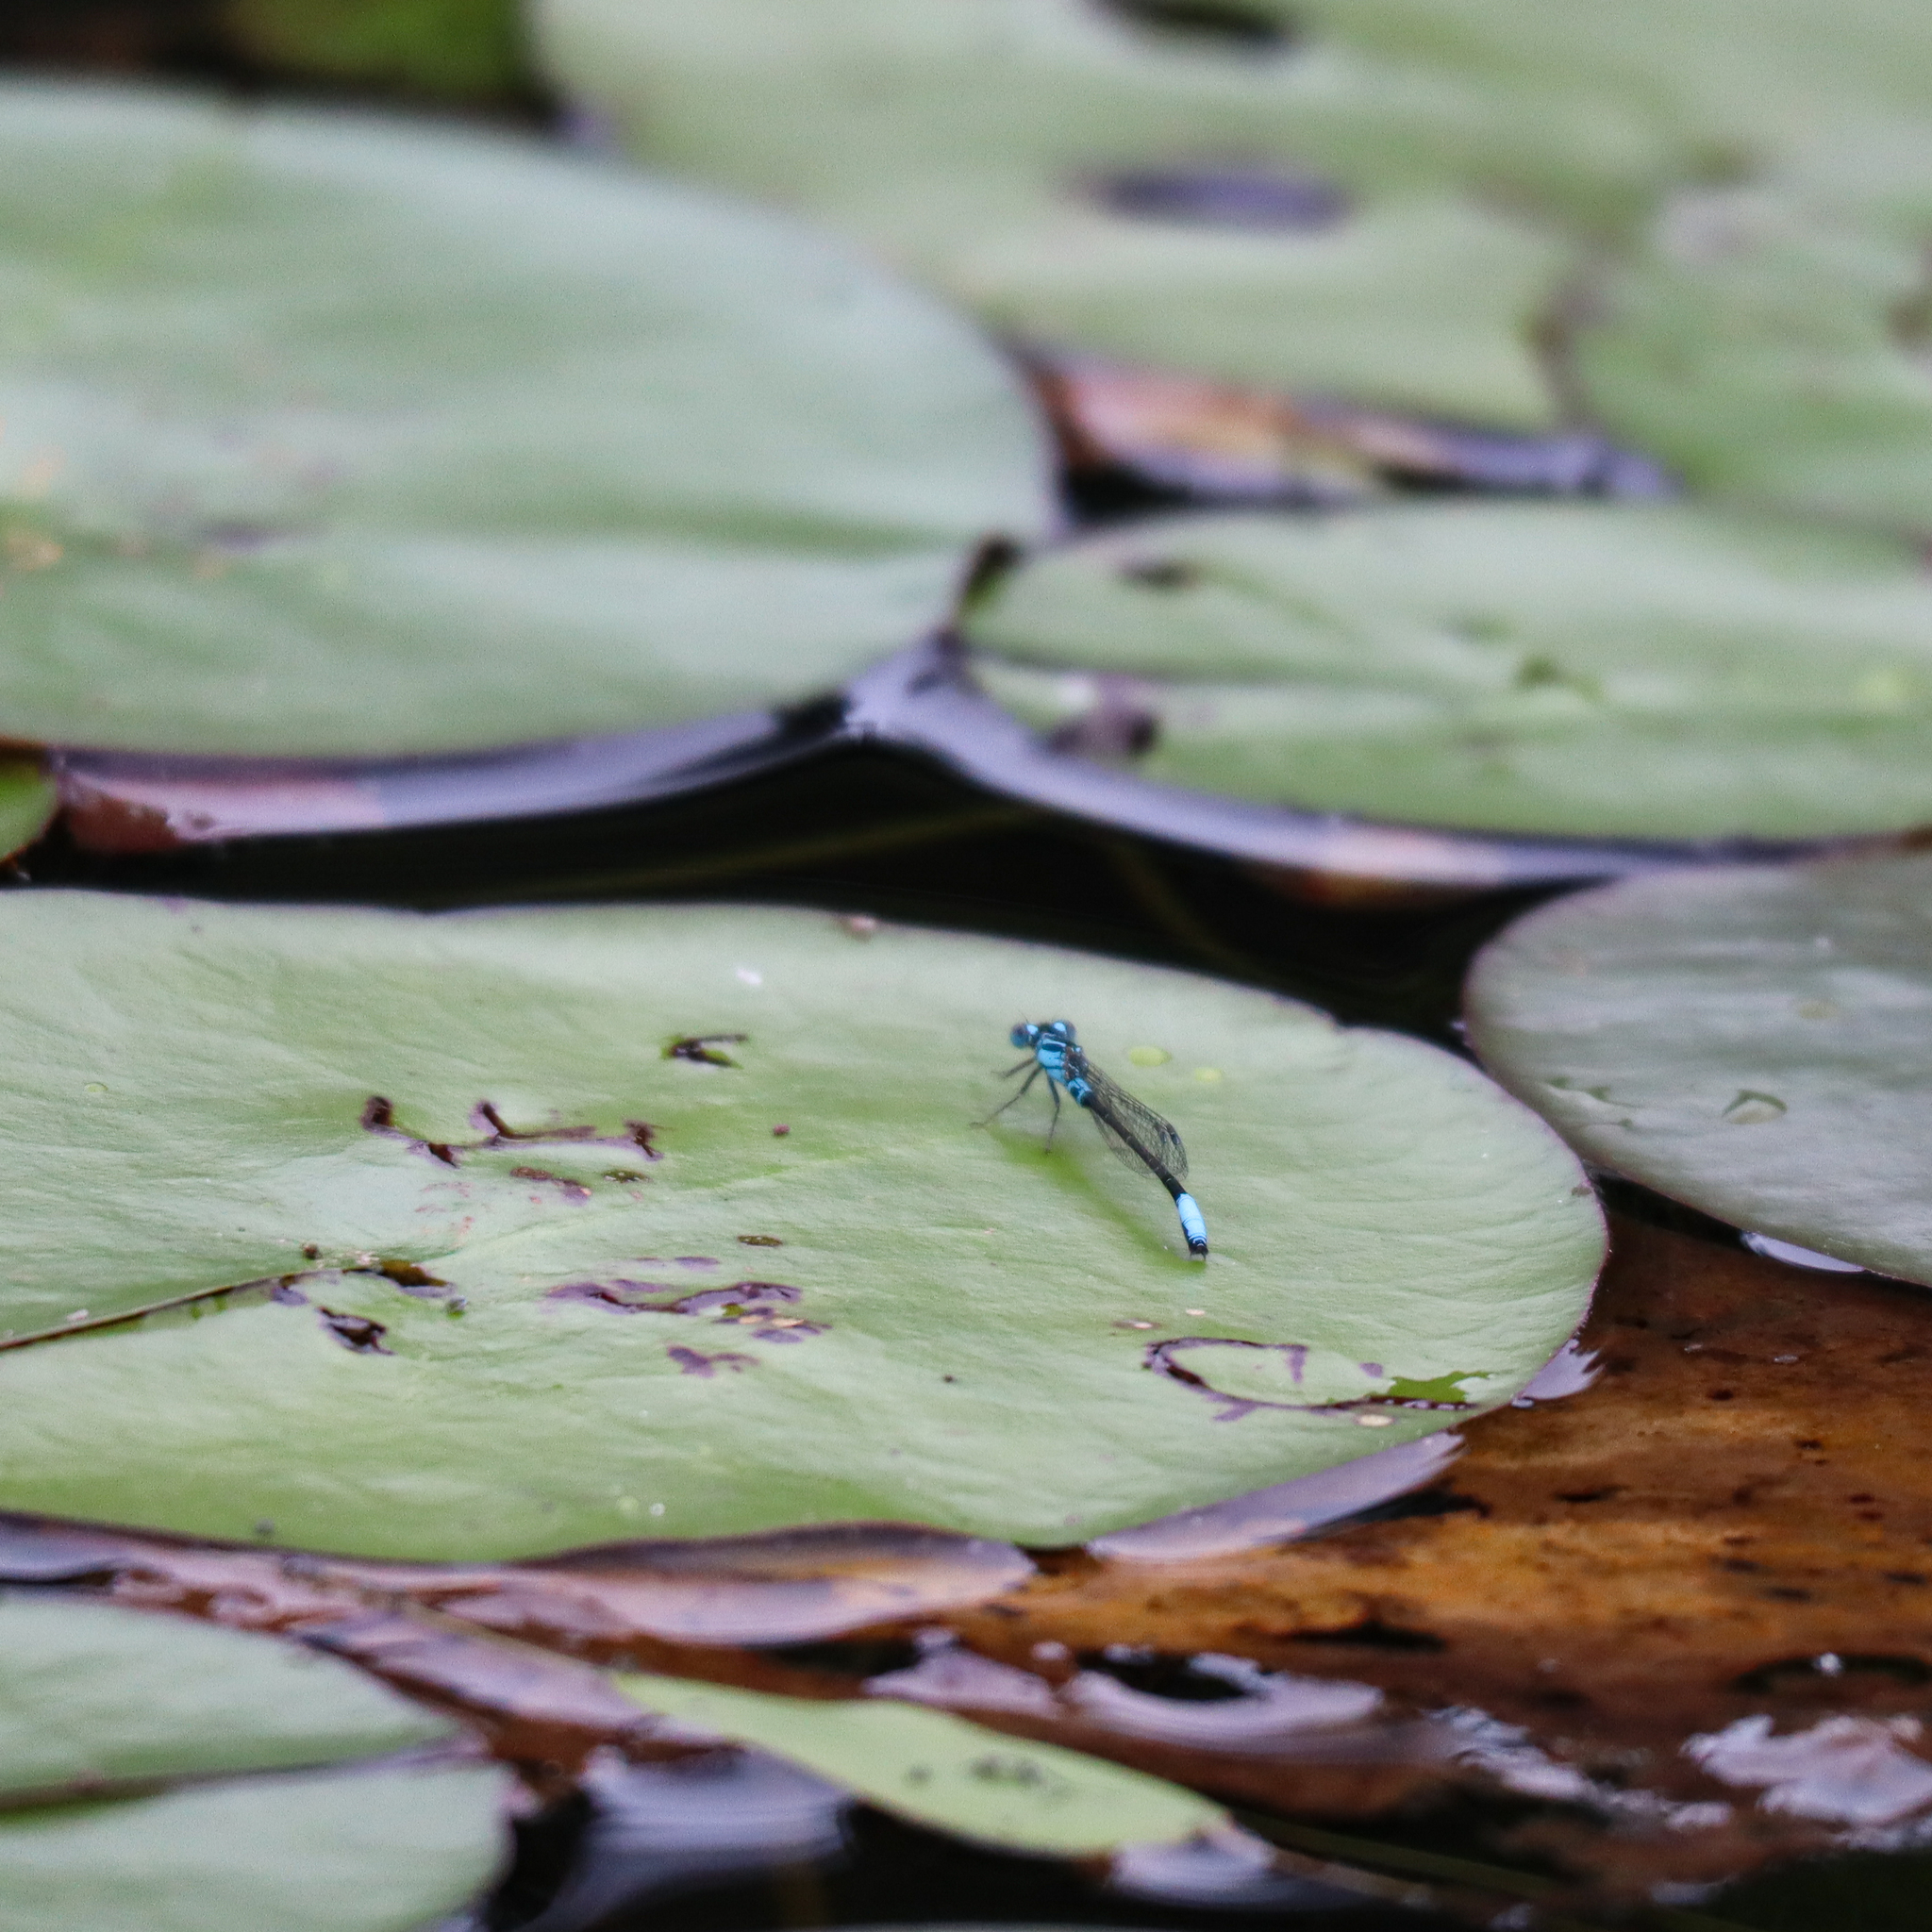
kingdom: Animalia
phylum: Arthropoda
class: Insecta
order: Odonata
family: Coenagrionidae
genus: Ischnura
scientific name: Ischnura kellicotti
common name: Lilypad forktail
